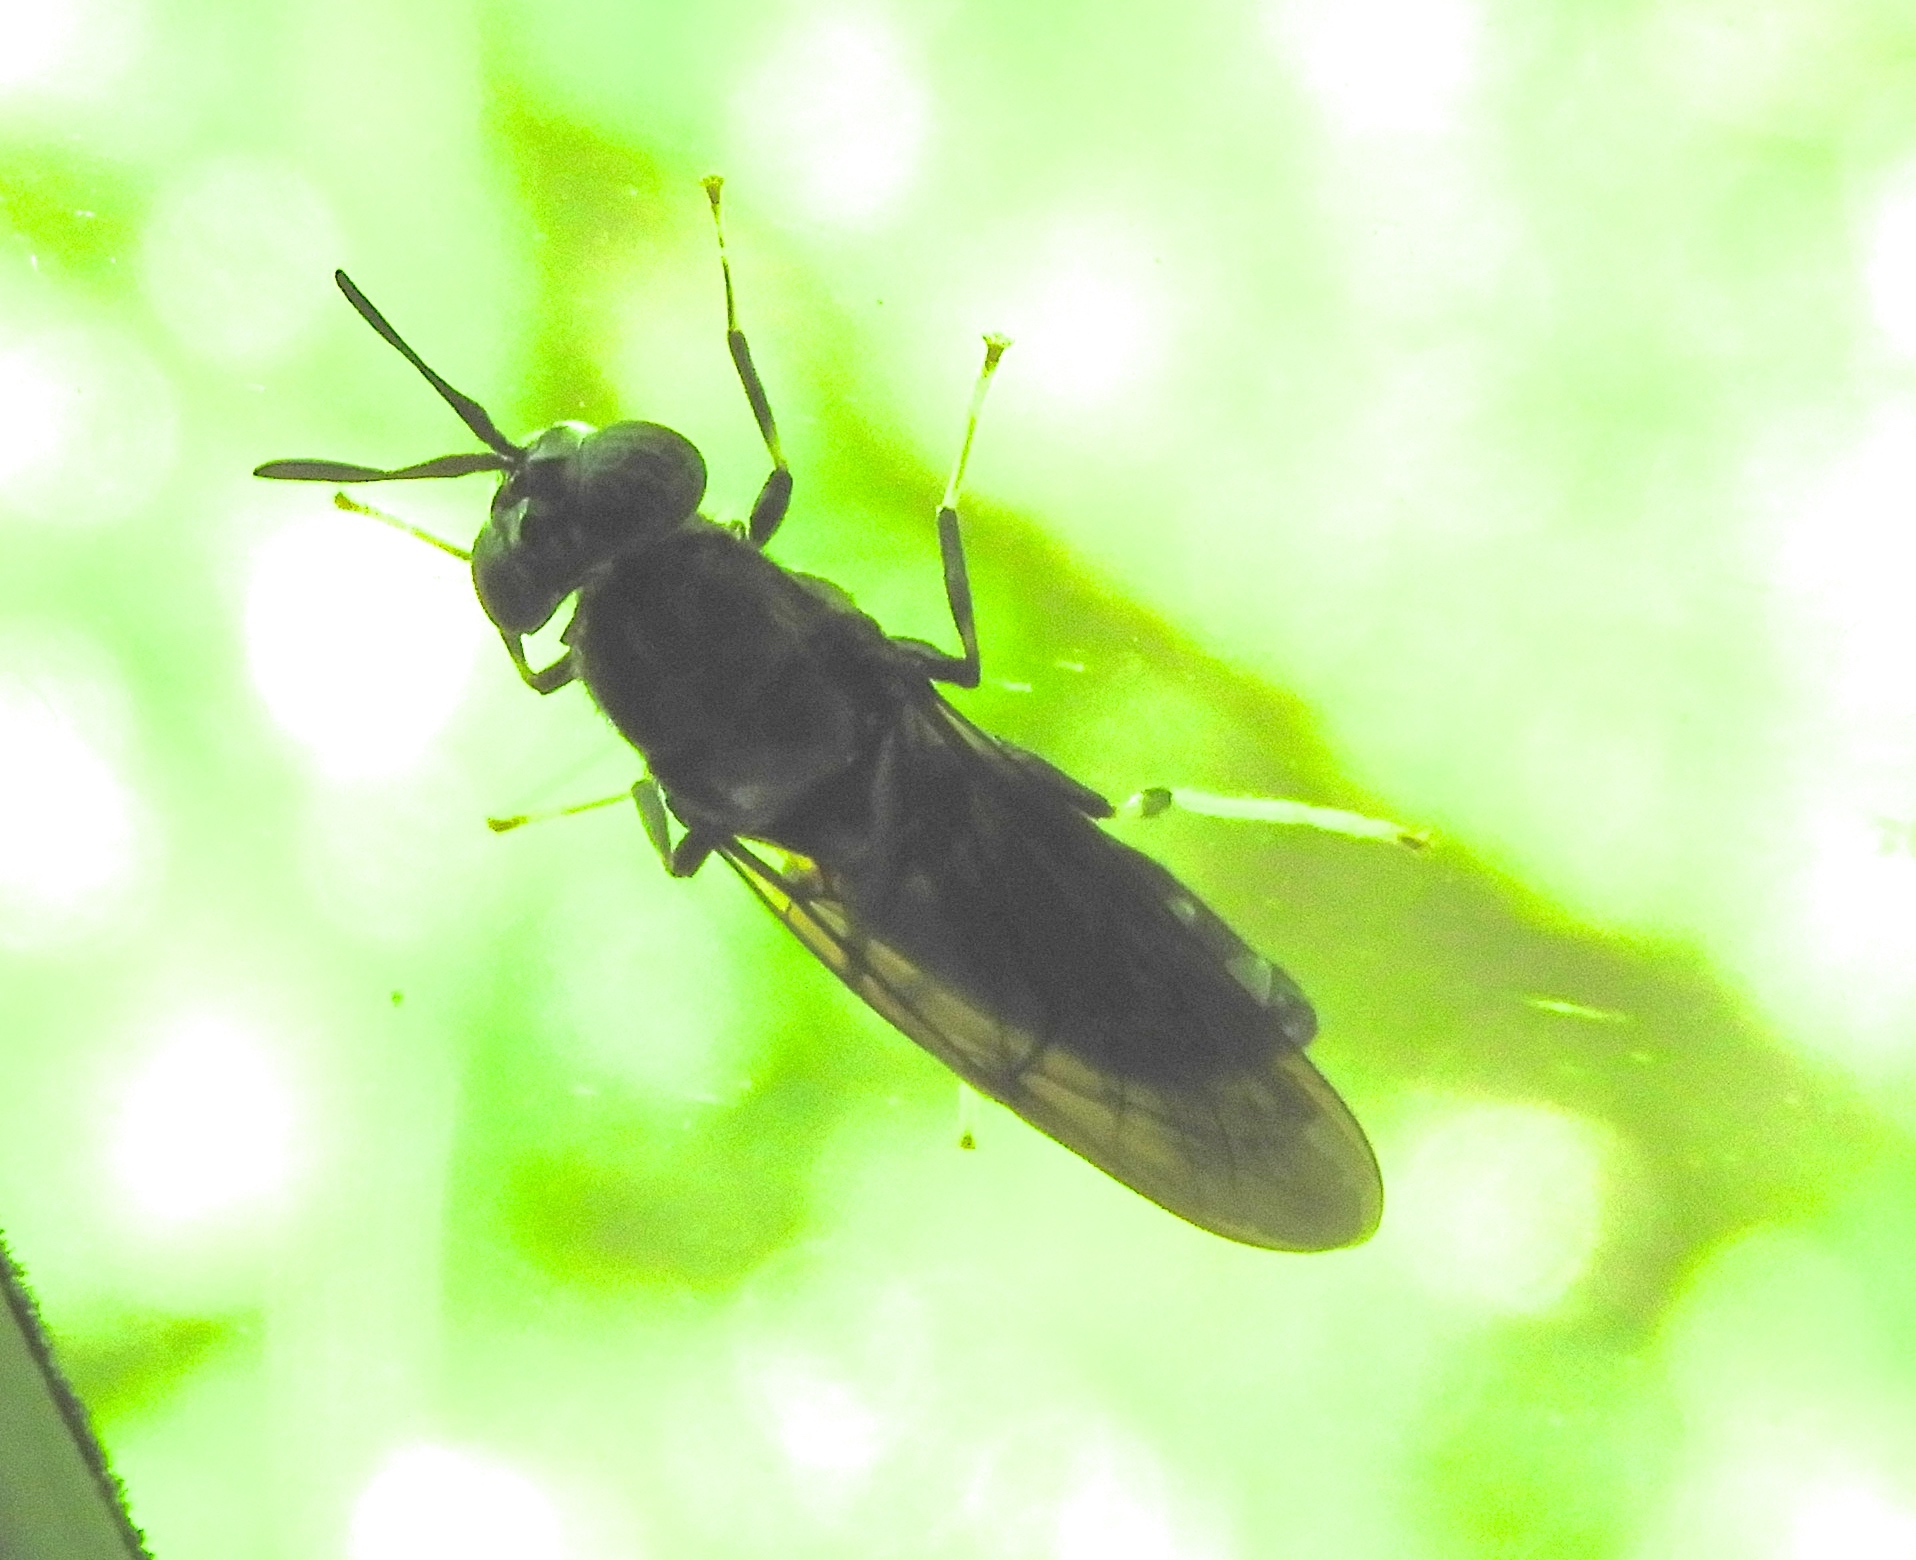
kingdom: Animalia
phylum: Arthropoda
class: Insecta
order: Diptera
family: Stratiomyidae
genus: Hermetia
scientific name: Hermetia illucens
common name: Black soldier fly
